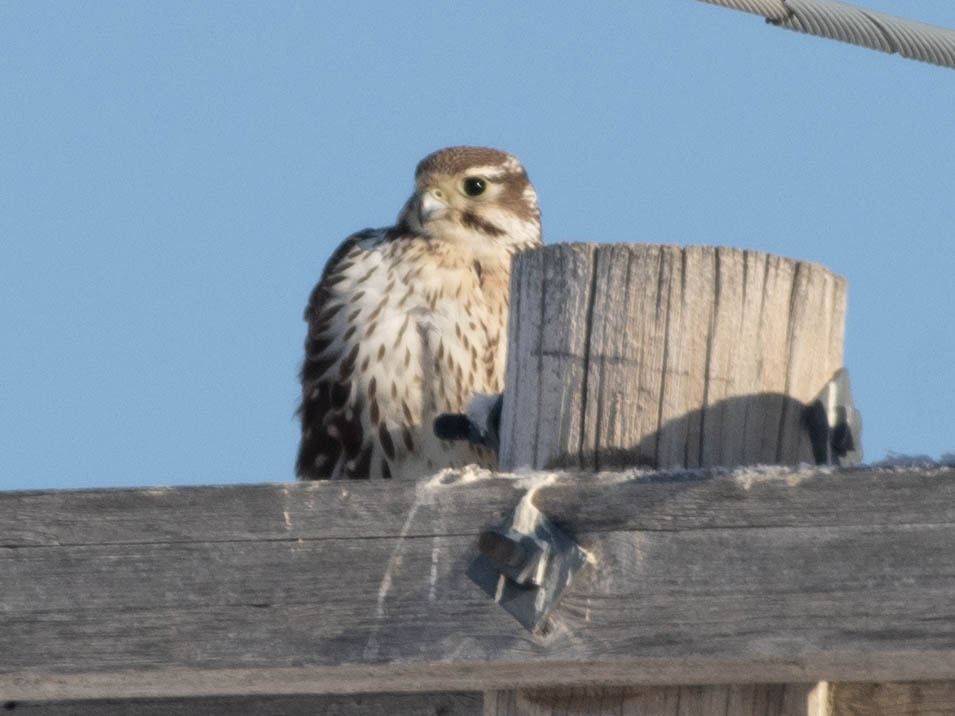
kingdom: Animalia
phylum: Chordata
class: Aves
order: Falconiformes
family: Falconidae
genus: Falco
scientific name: Falco mexicanus
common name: Prairie falcon
